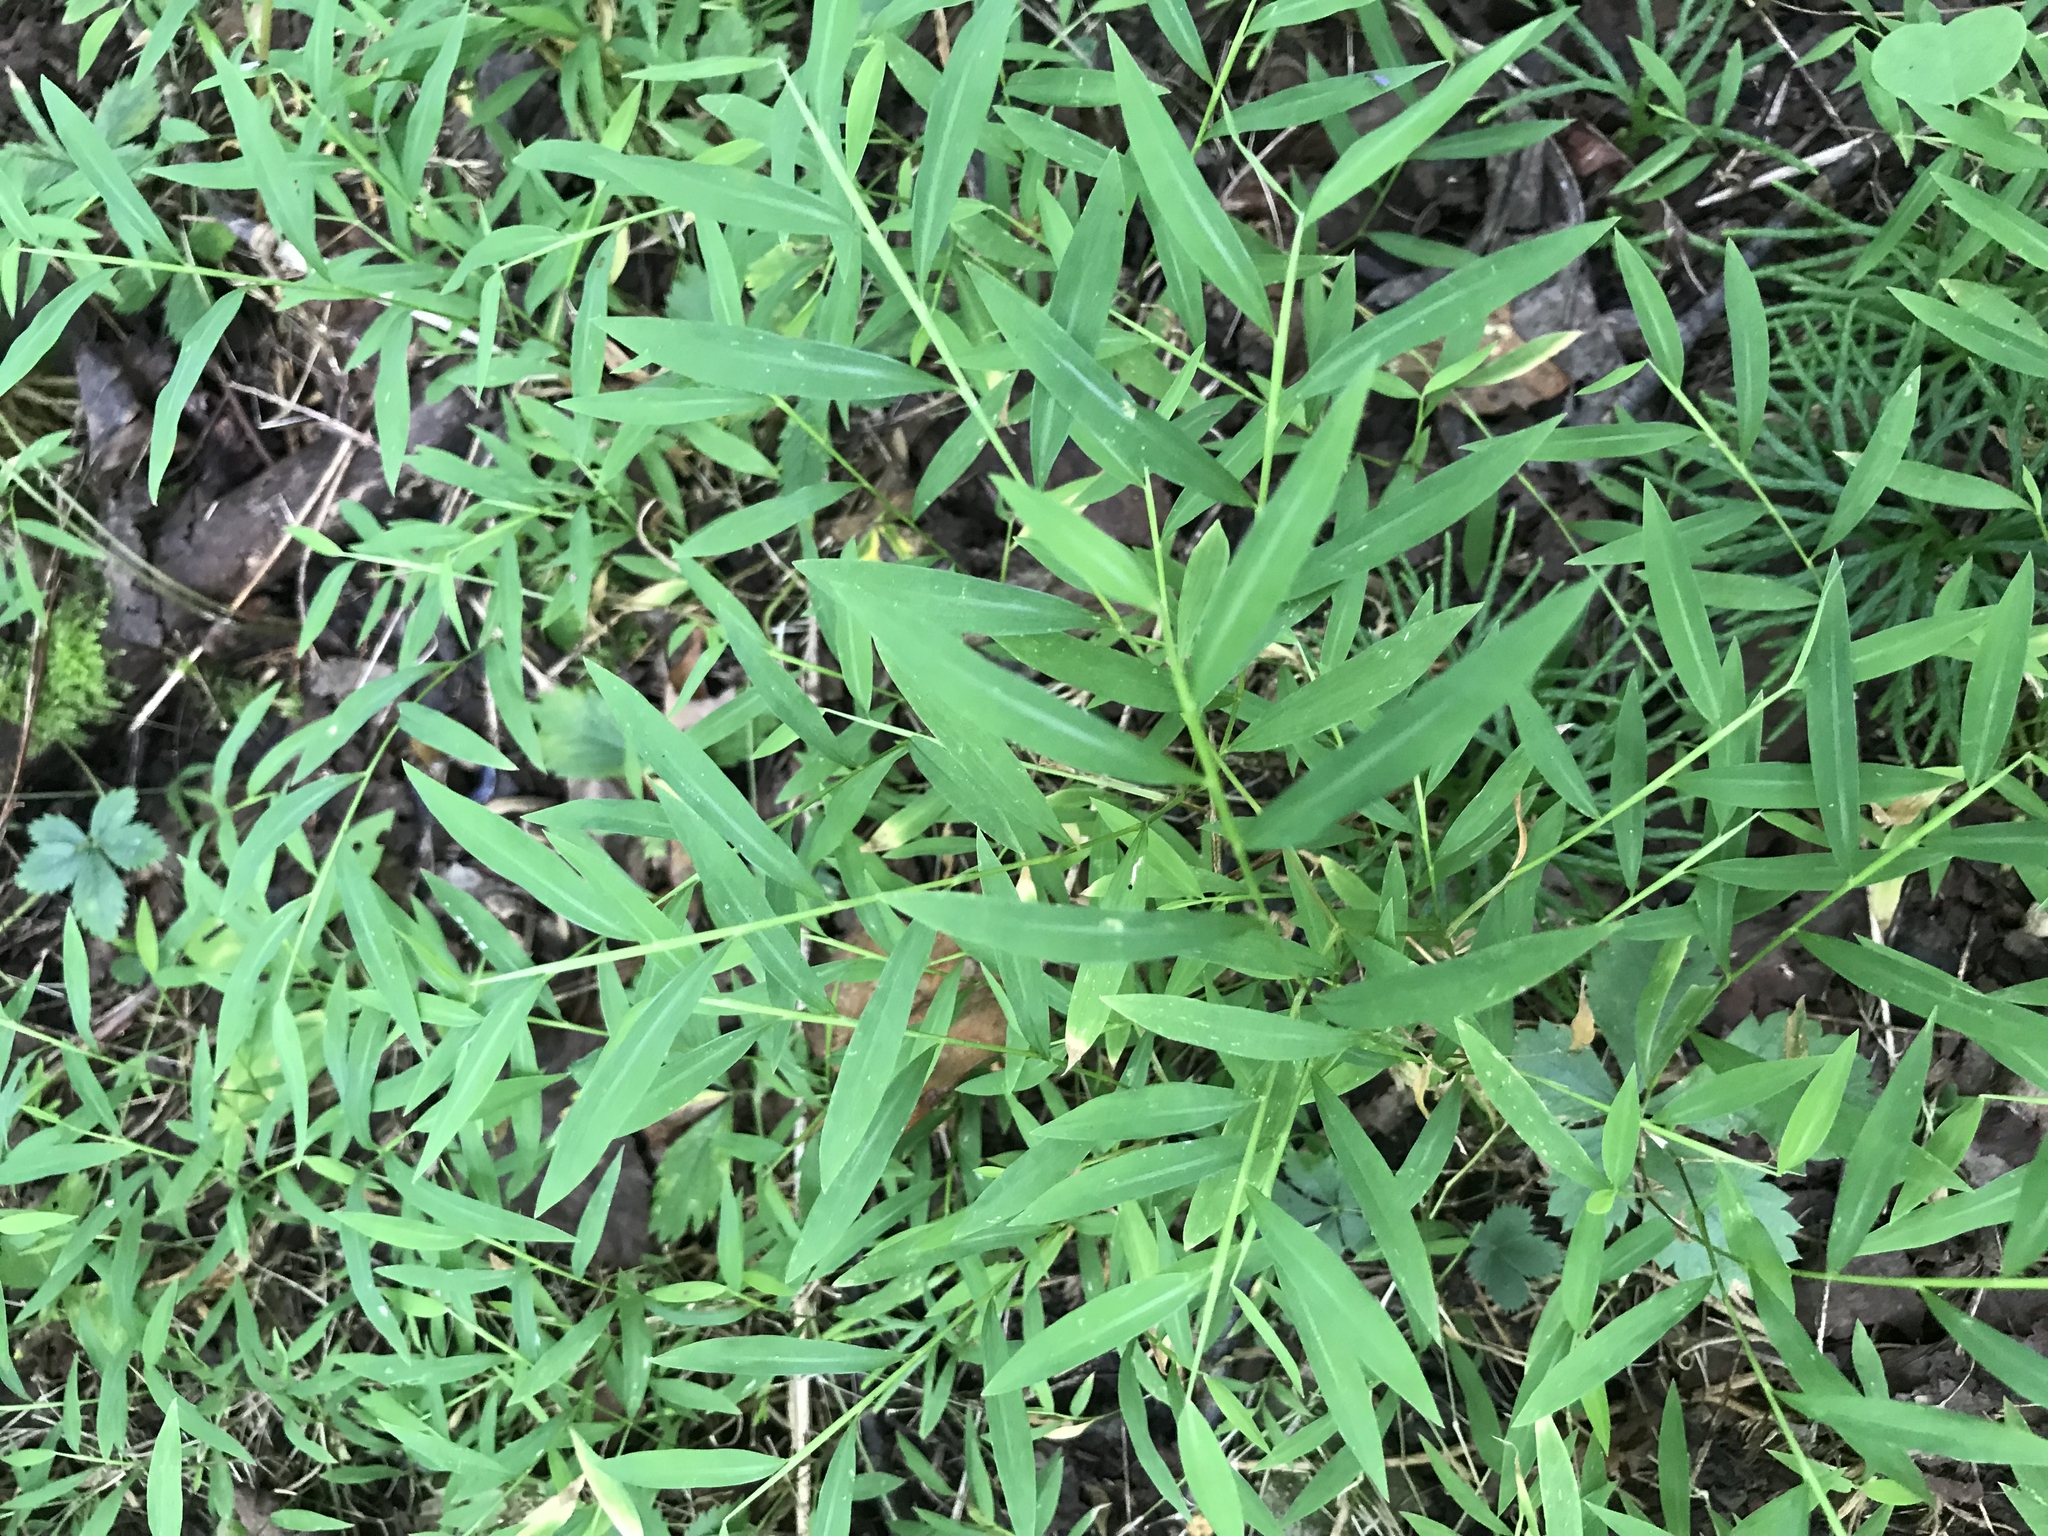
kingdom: Plantae
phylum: Tracheophyta
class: Liliopsida
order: Poales
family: Poaceae
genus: Microstegium
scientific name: Microstegium vimineum
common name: Japanese stiltgrass
